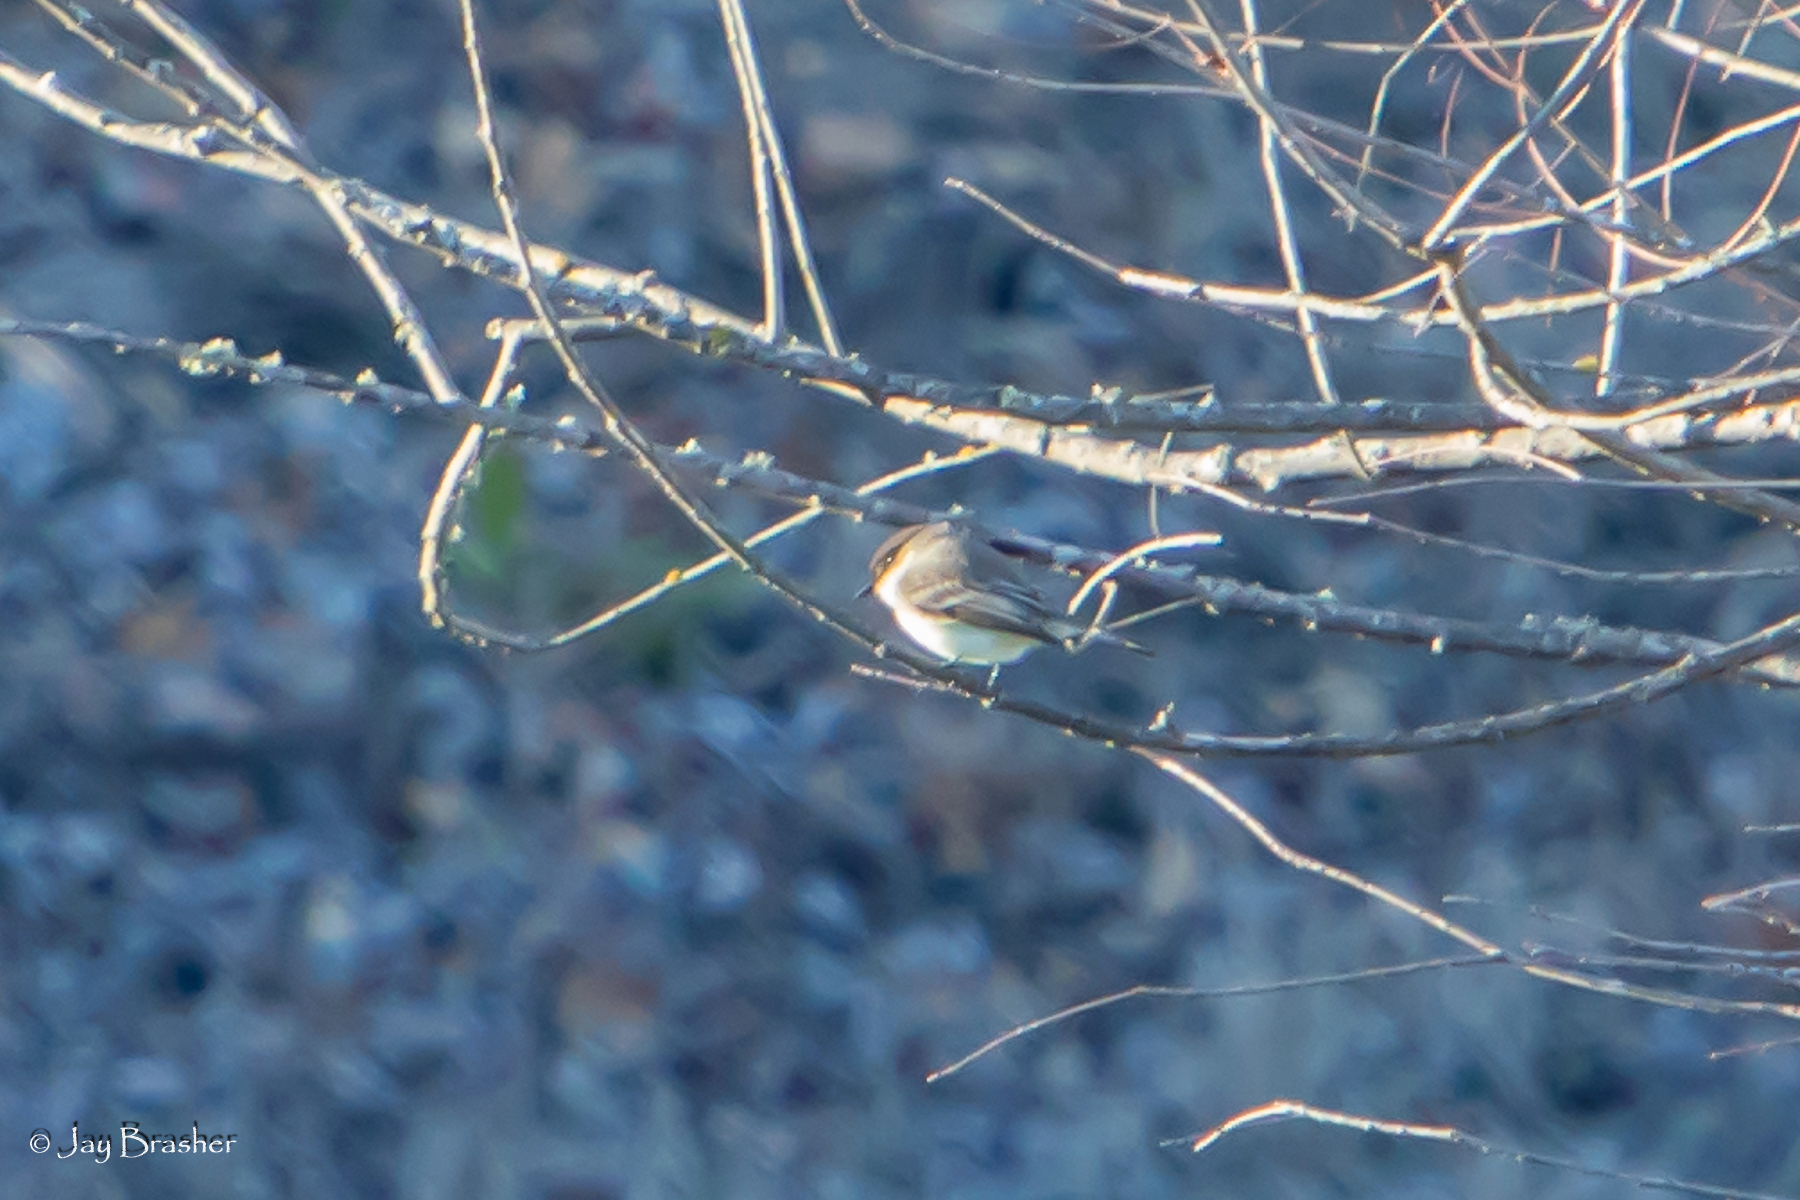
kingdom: Animalia
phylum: Chordata
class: Aves
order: Passeriformes
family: Tyrannidae
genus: Sayornis
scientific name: Sayornis phoebe
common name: Eastern phoebe
